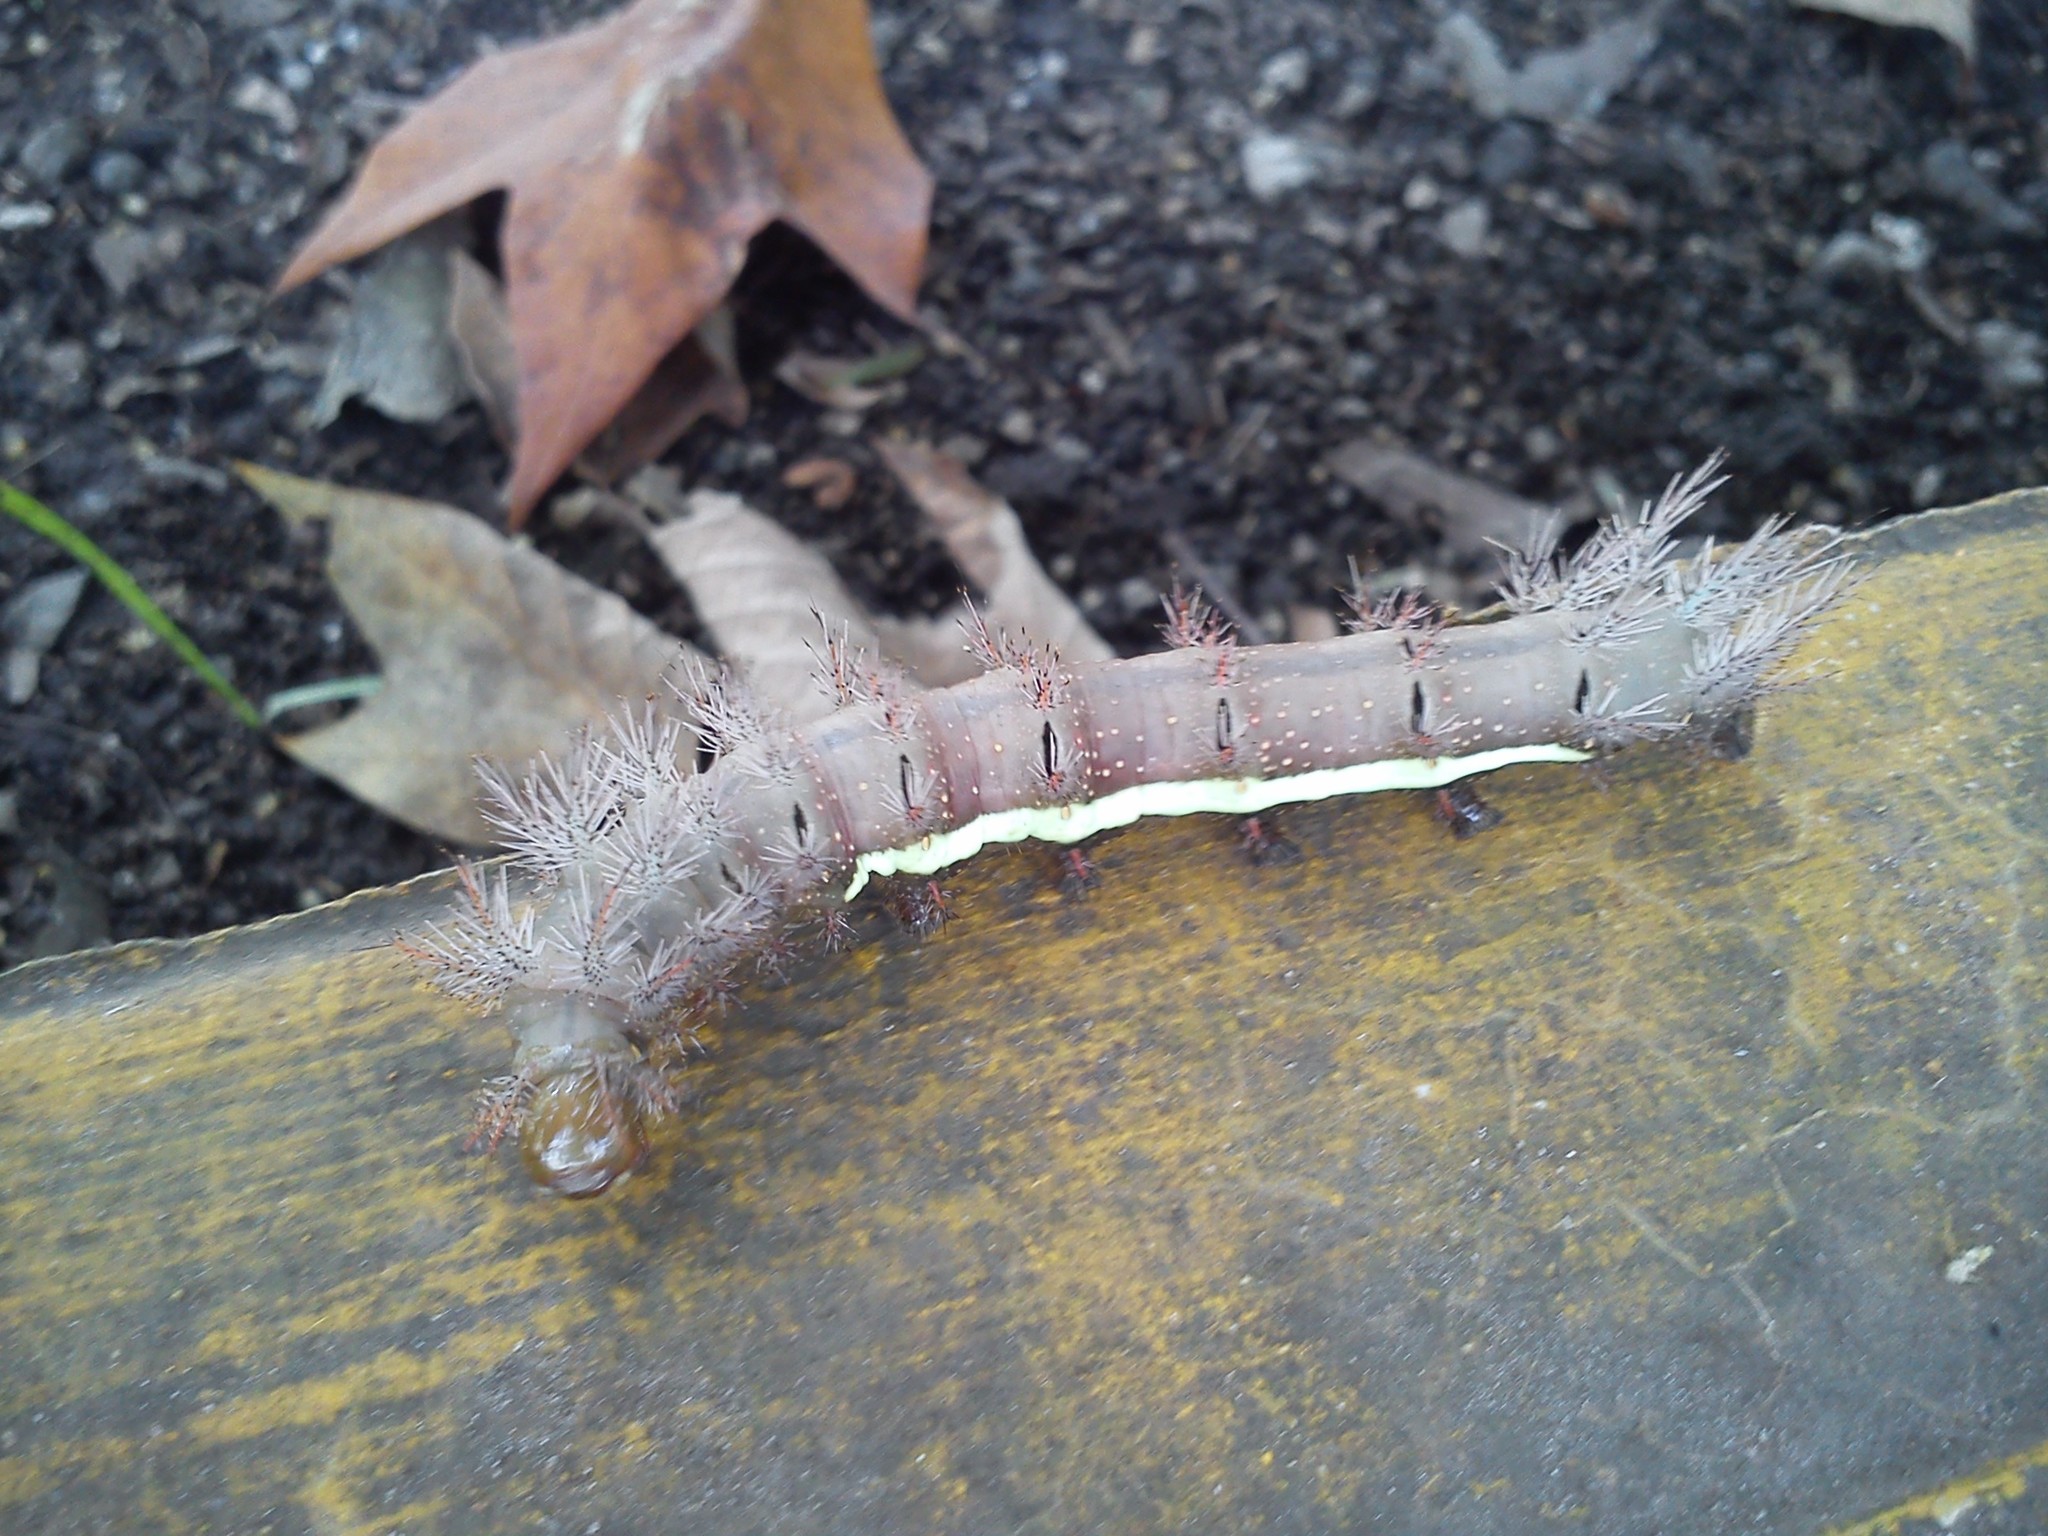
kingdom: Animalia
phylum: Arthropoda
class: Insecta
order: Lepidoptera
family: Saturniidae
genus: Automeris
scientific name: Automeris banus
